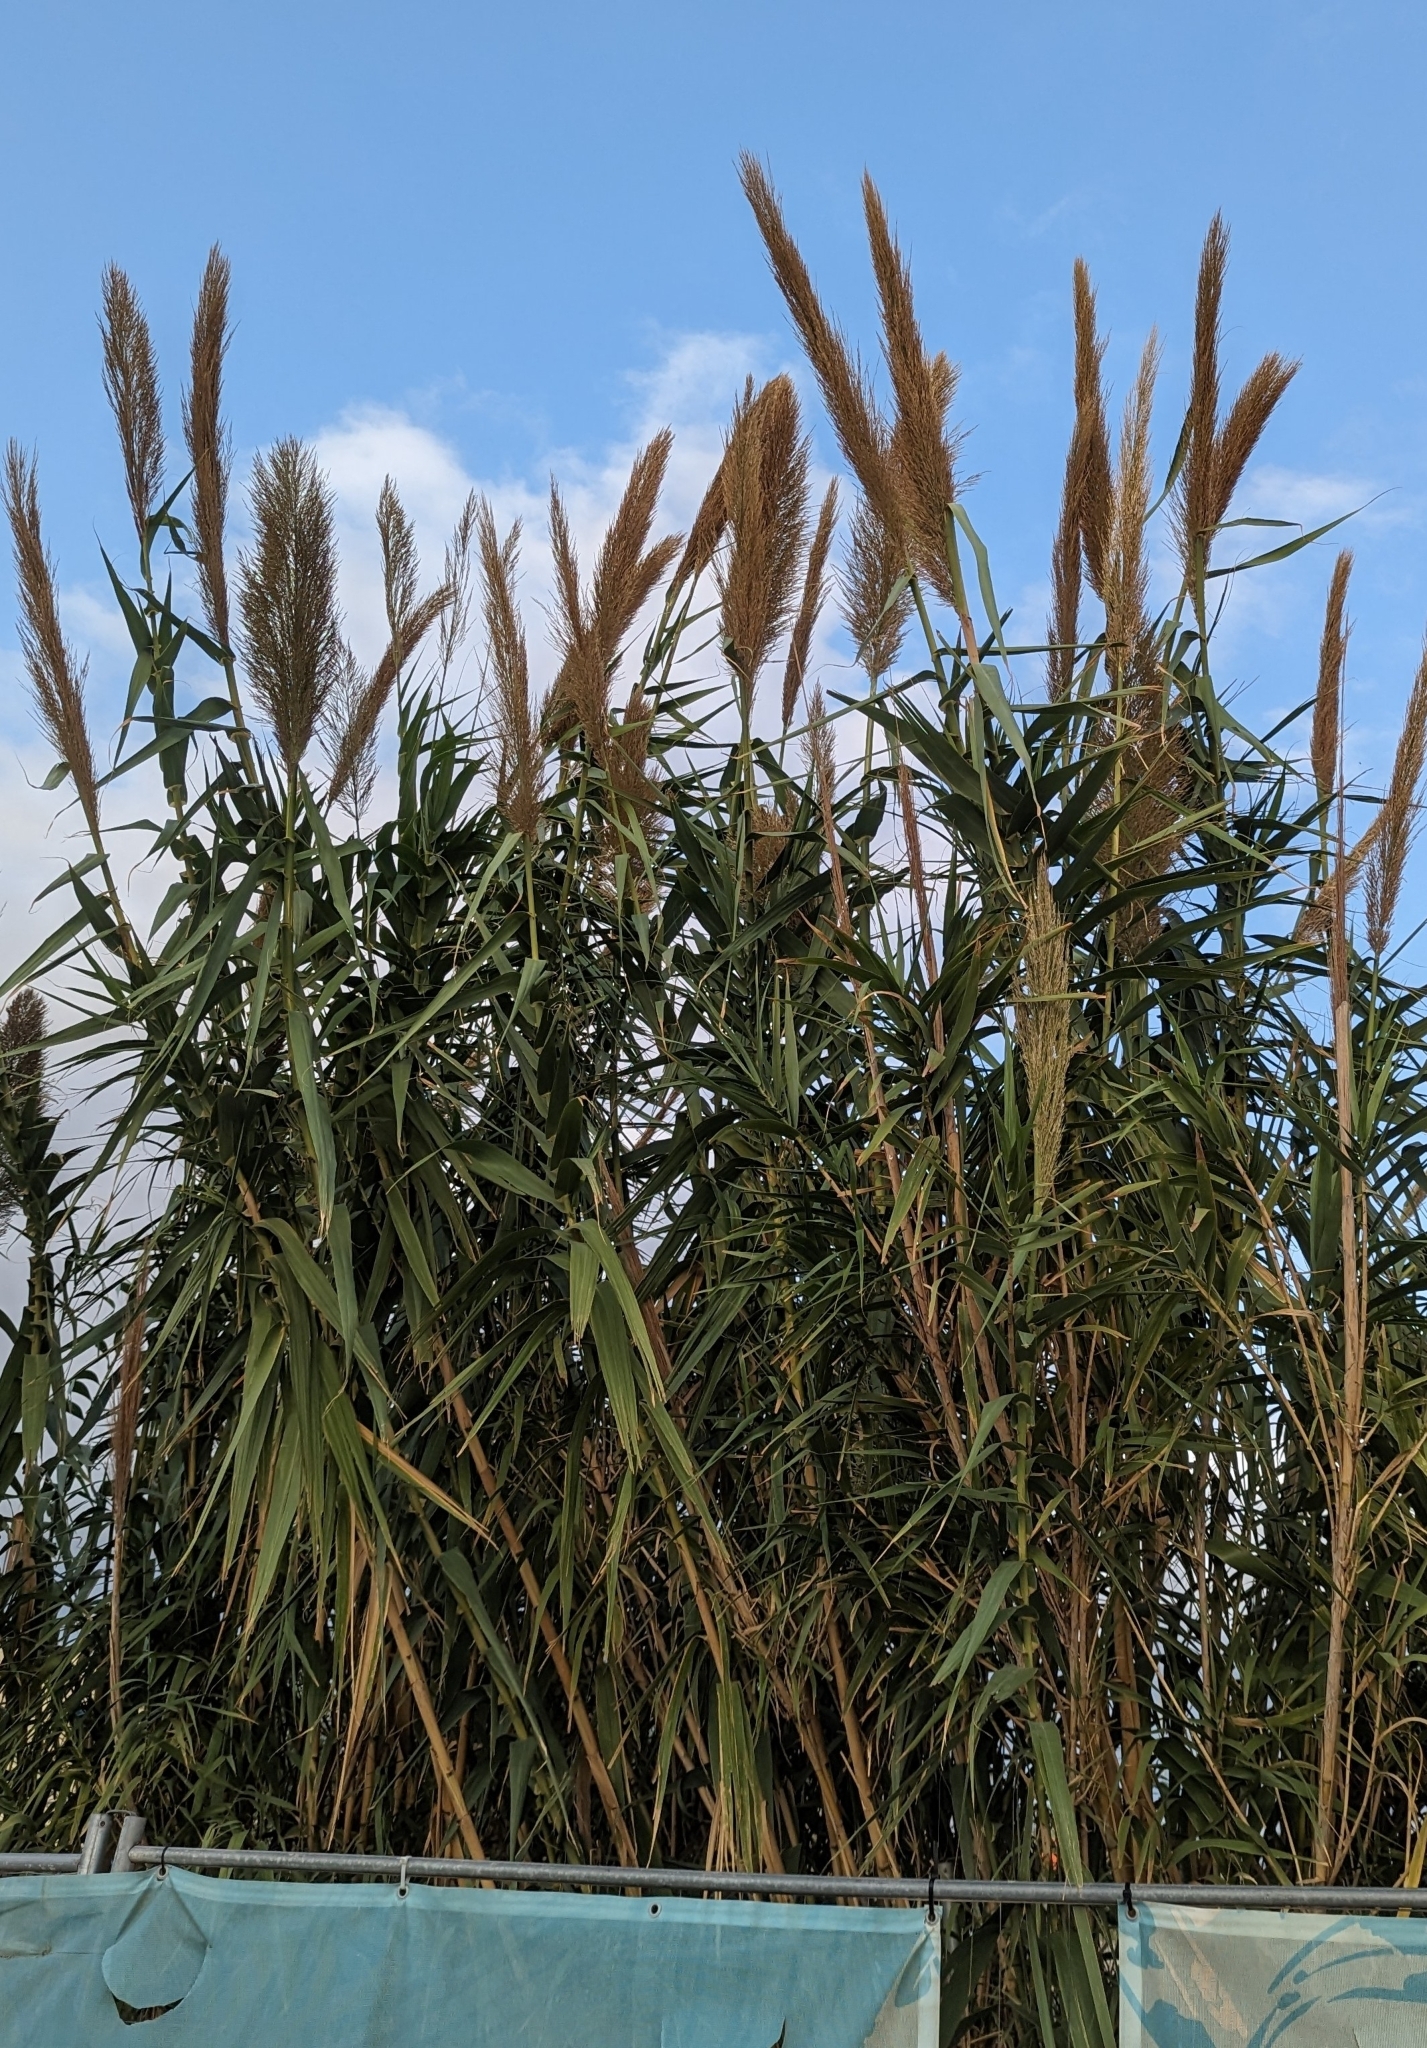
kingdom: Plantae
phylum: Tracheophyta
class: Liliopsida
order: Poales
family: Poaceae
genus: Arundo
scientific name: Arundo donax
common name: Giant reed
